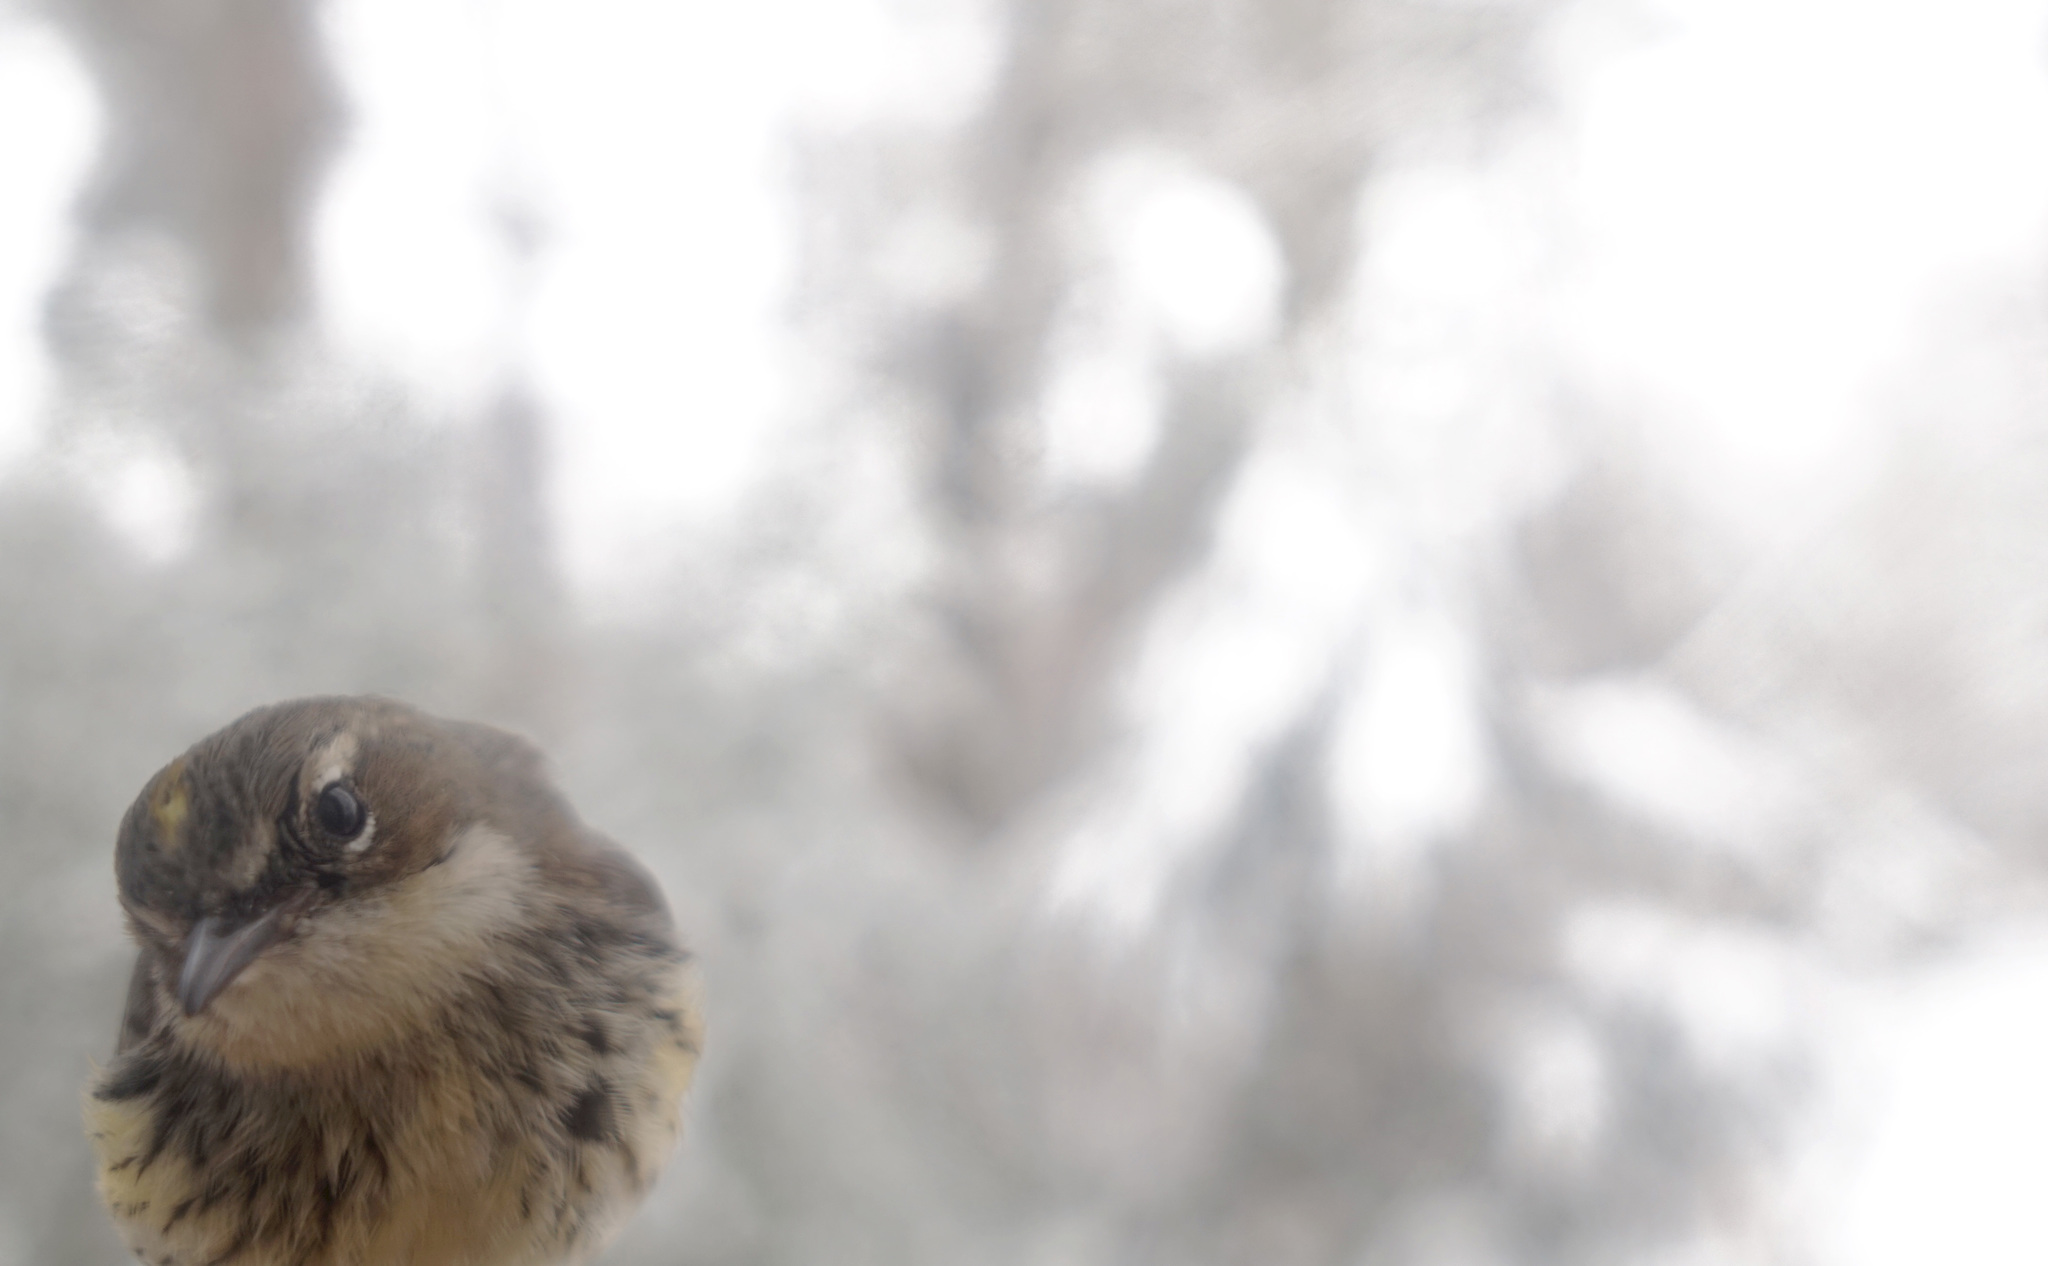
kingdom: Animalia
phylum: Chordata
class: Aves
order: Passeriformes
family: Parulidae
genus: Setophaga
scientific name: Setophaga coronata
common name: Myrtle warbler
